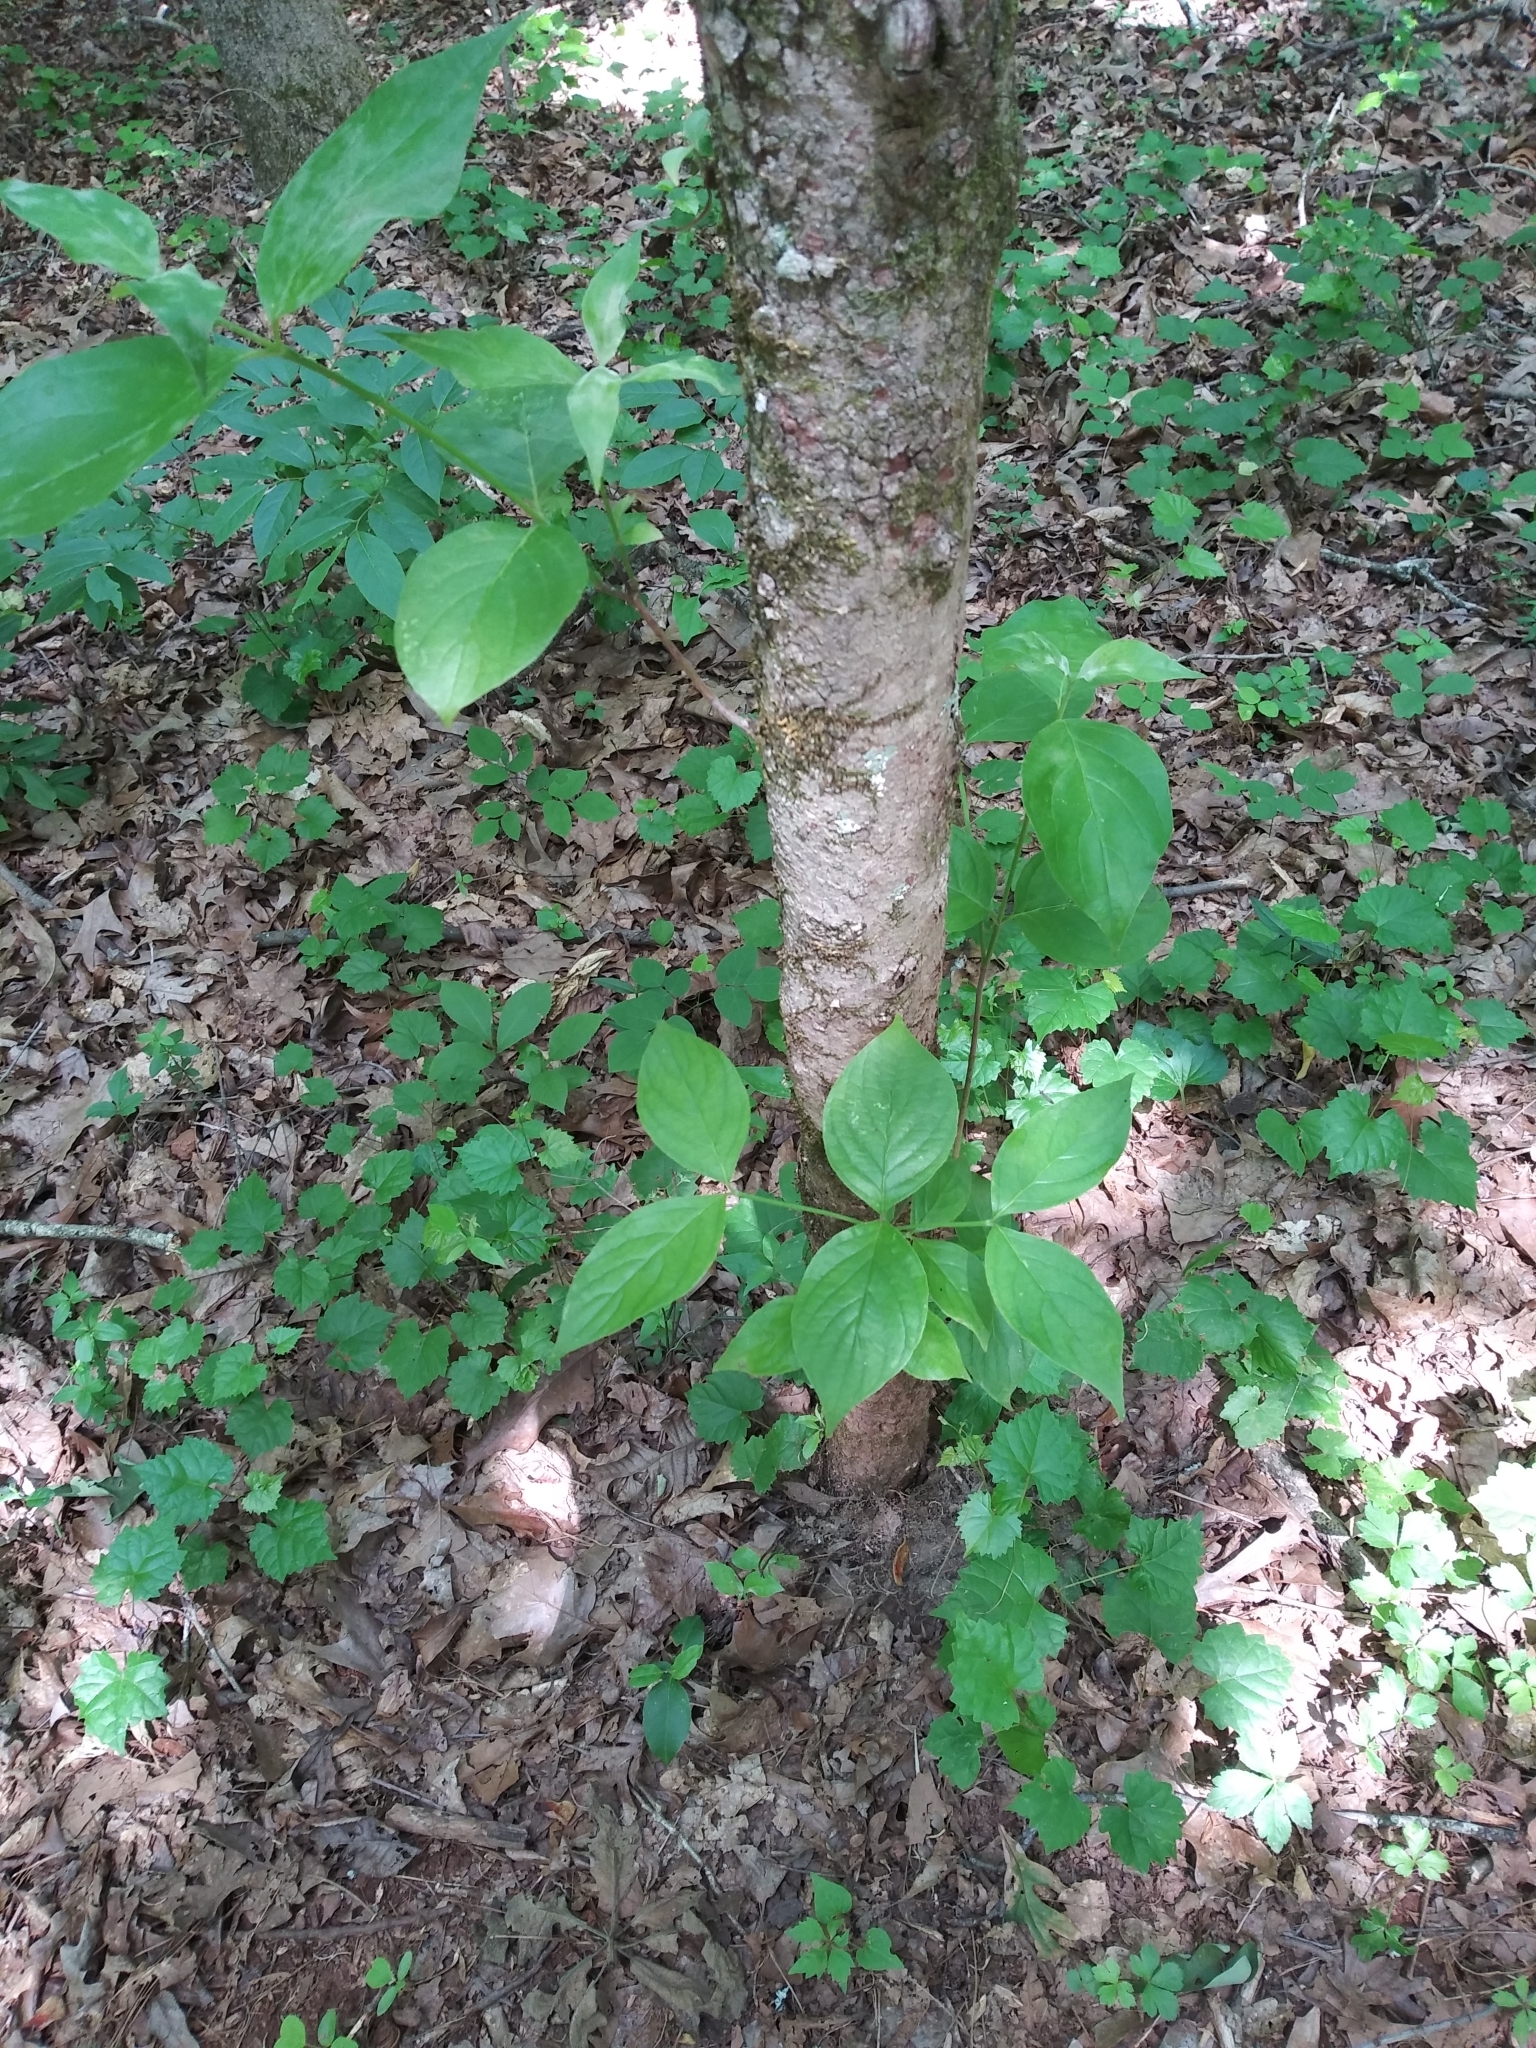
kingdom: Plantae
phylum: Tracheophyta
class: Magnoliopsida
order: Cornales
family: Cornaceae
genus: Cornus
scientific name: Cornus florida
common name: Flowering dogwood
